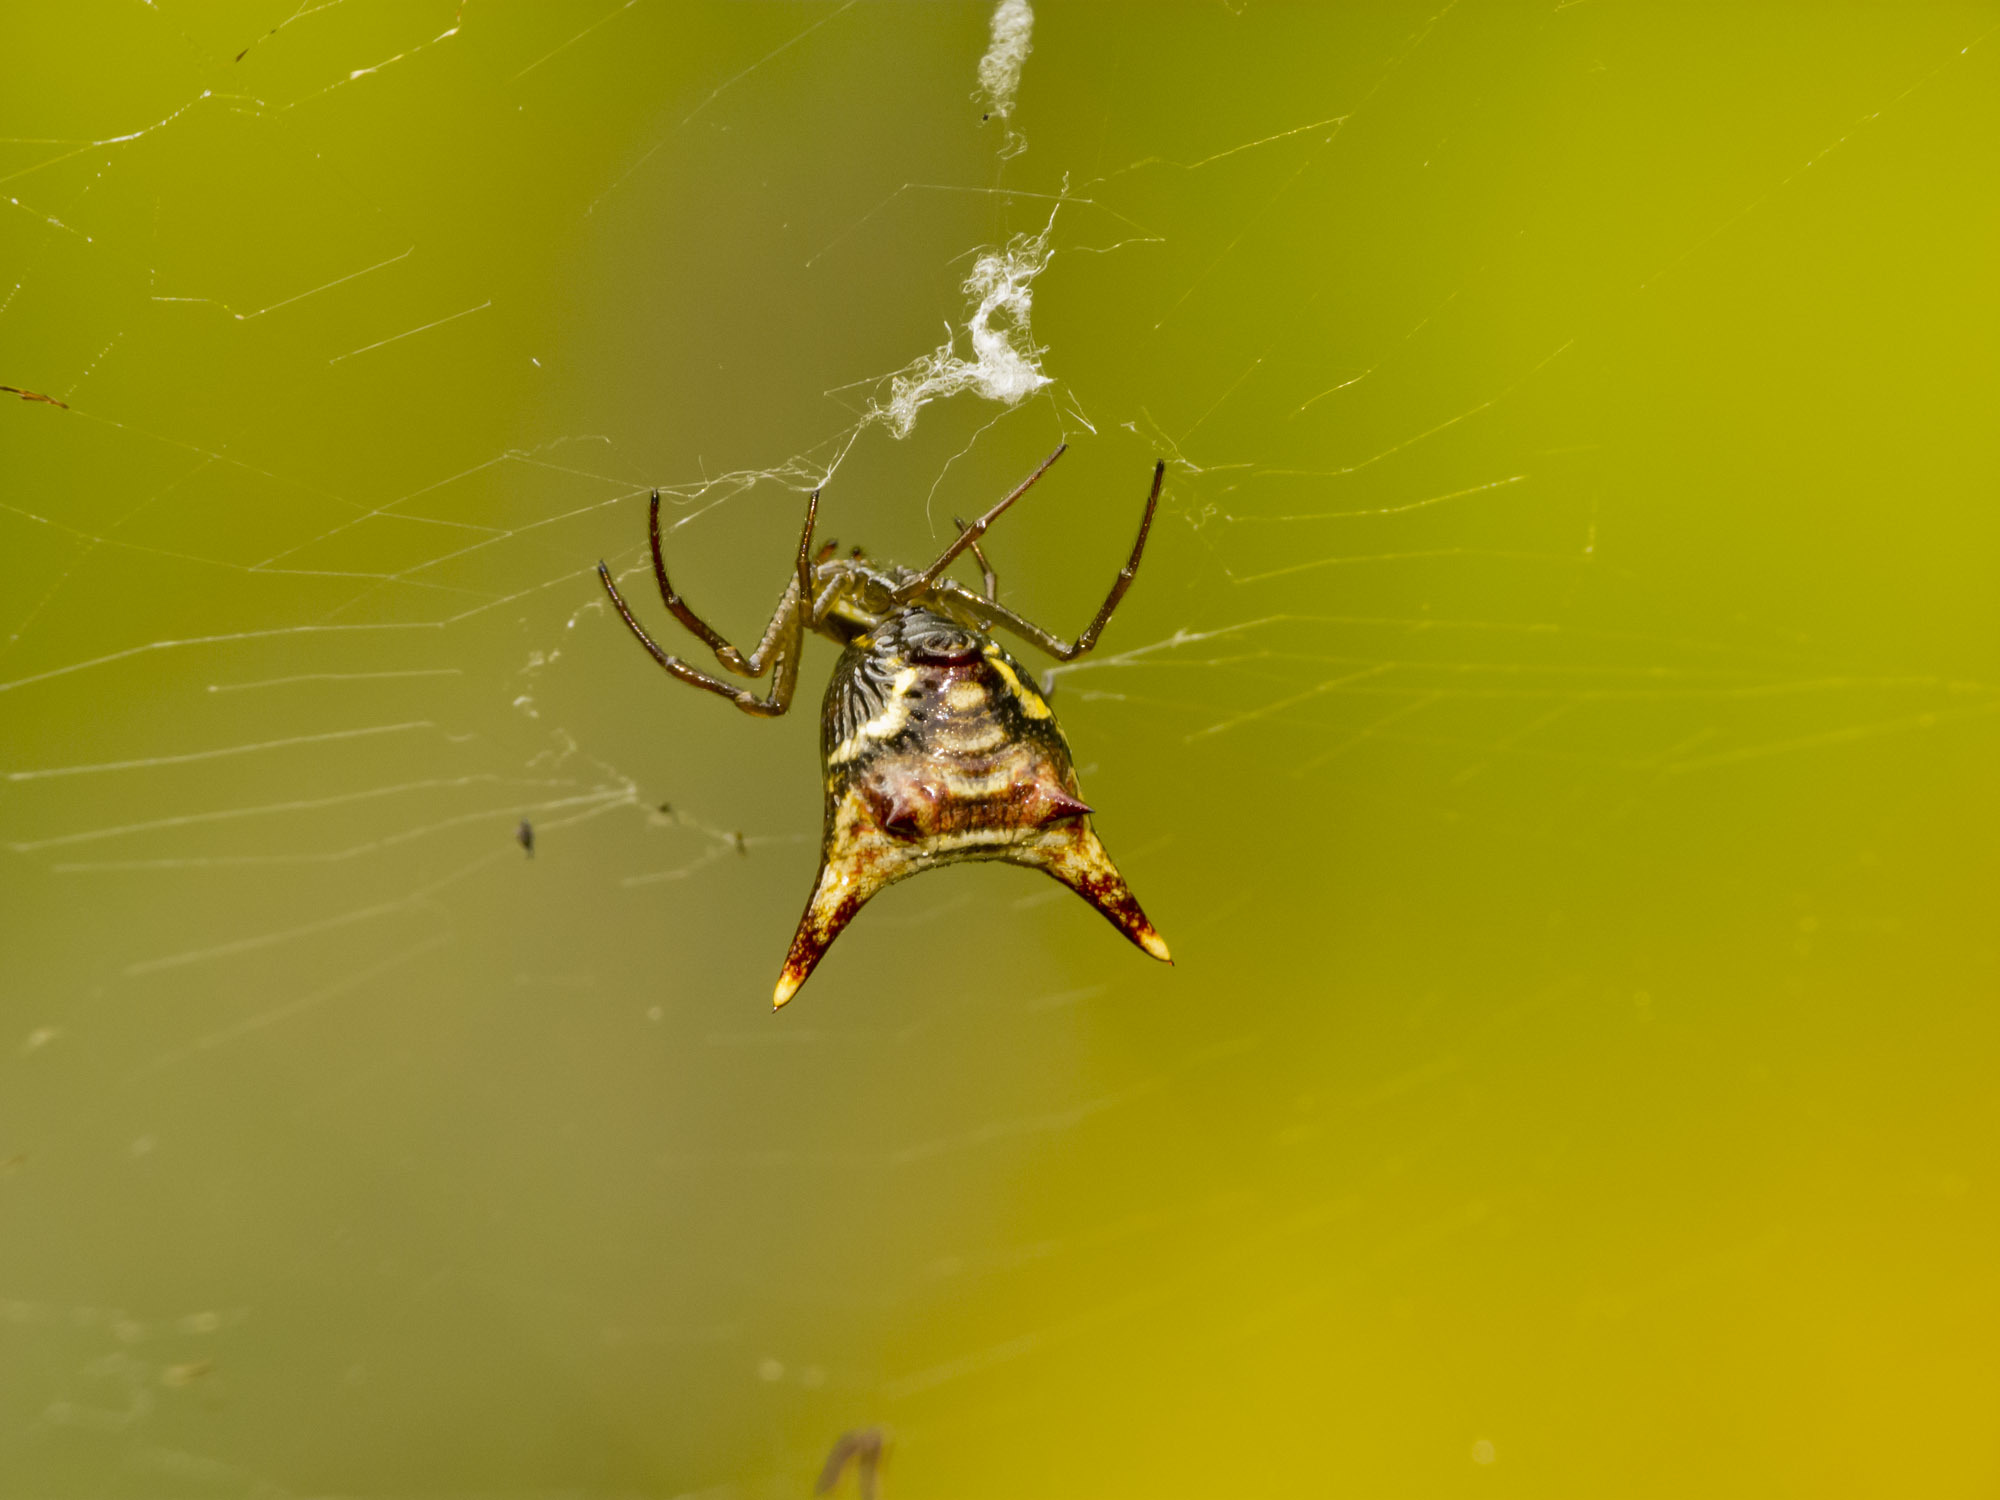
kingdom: Animalia
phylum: Arthropoda
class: Arachnida
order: Araneae
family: Araneidae
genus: Micrathena
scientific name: Micrathena
